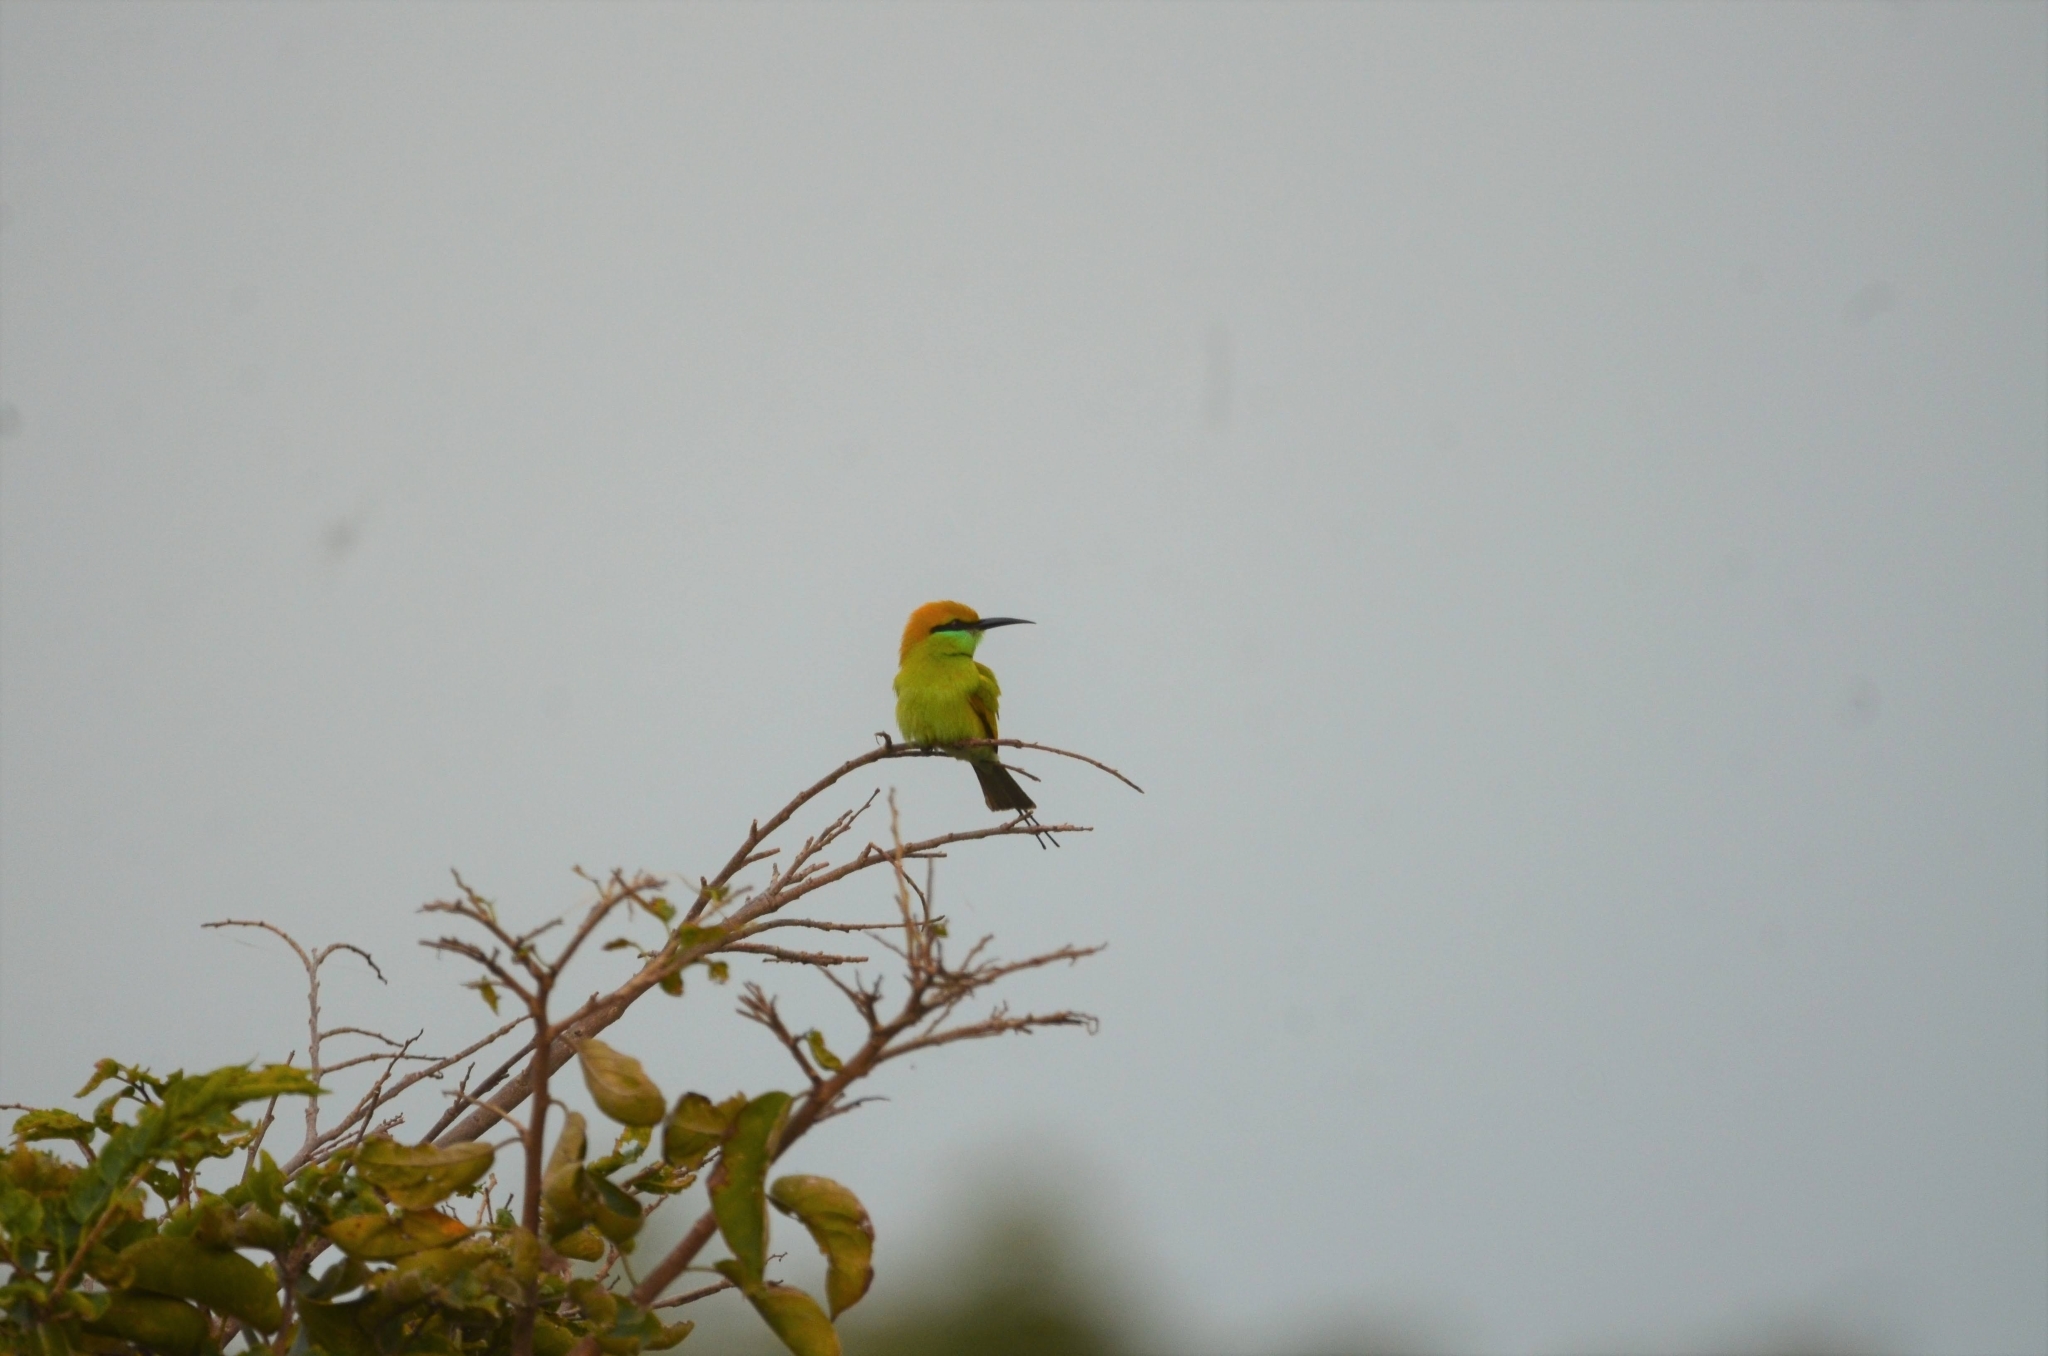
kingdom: Animalia
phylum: Chordata
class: Aves
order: Coraciiformes
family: Meropidae
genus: Merops
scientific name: Merops orientalis
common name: Green bee-eater
